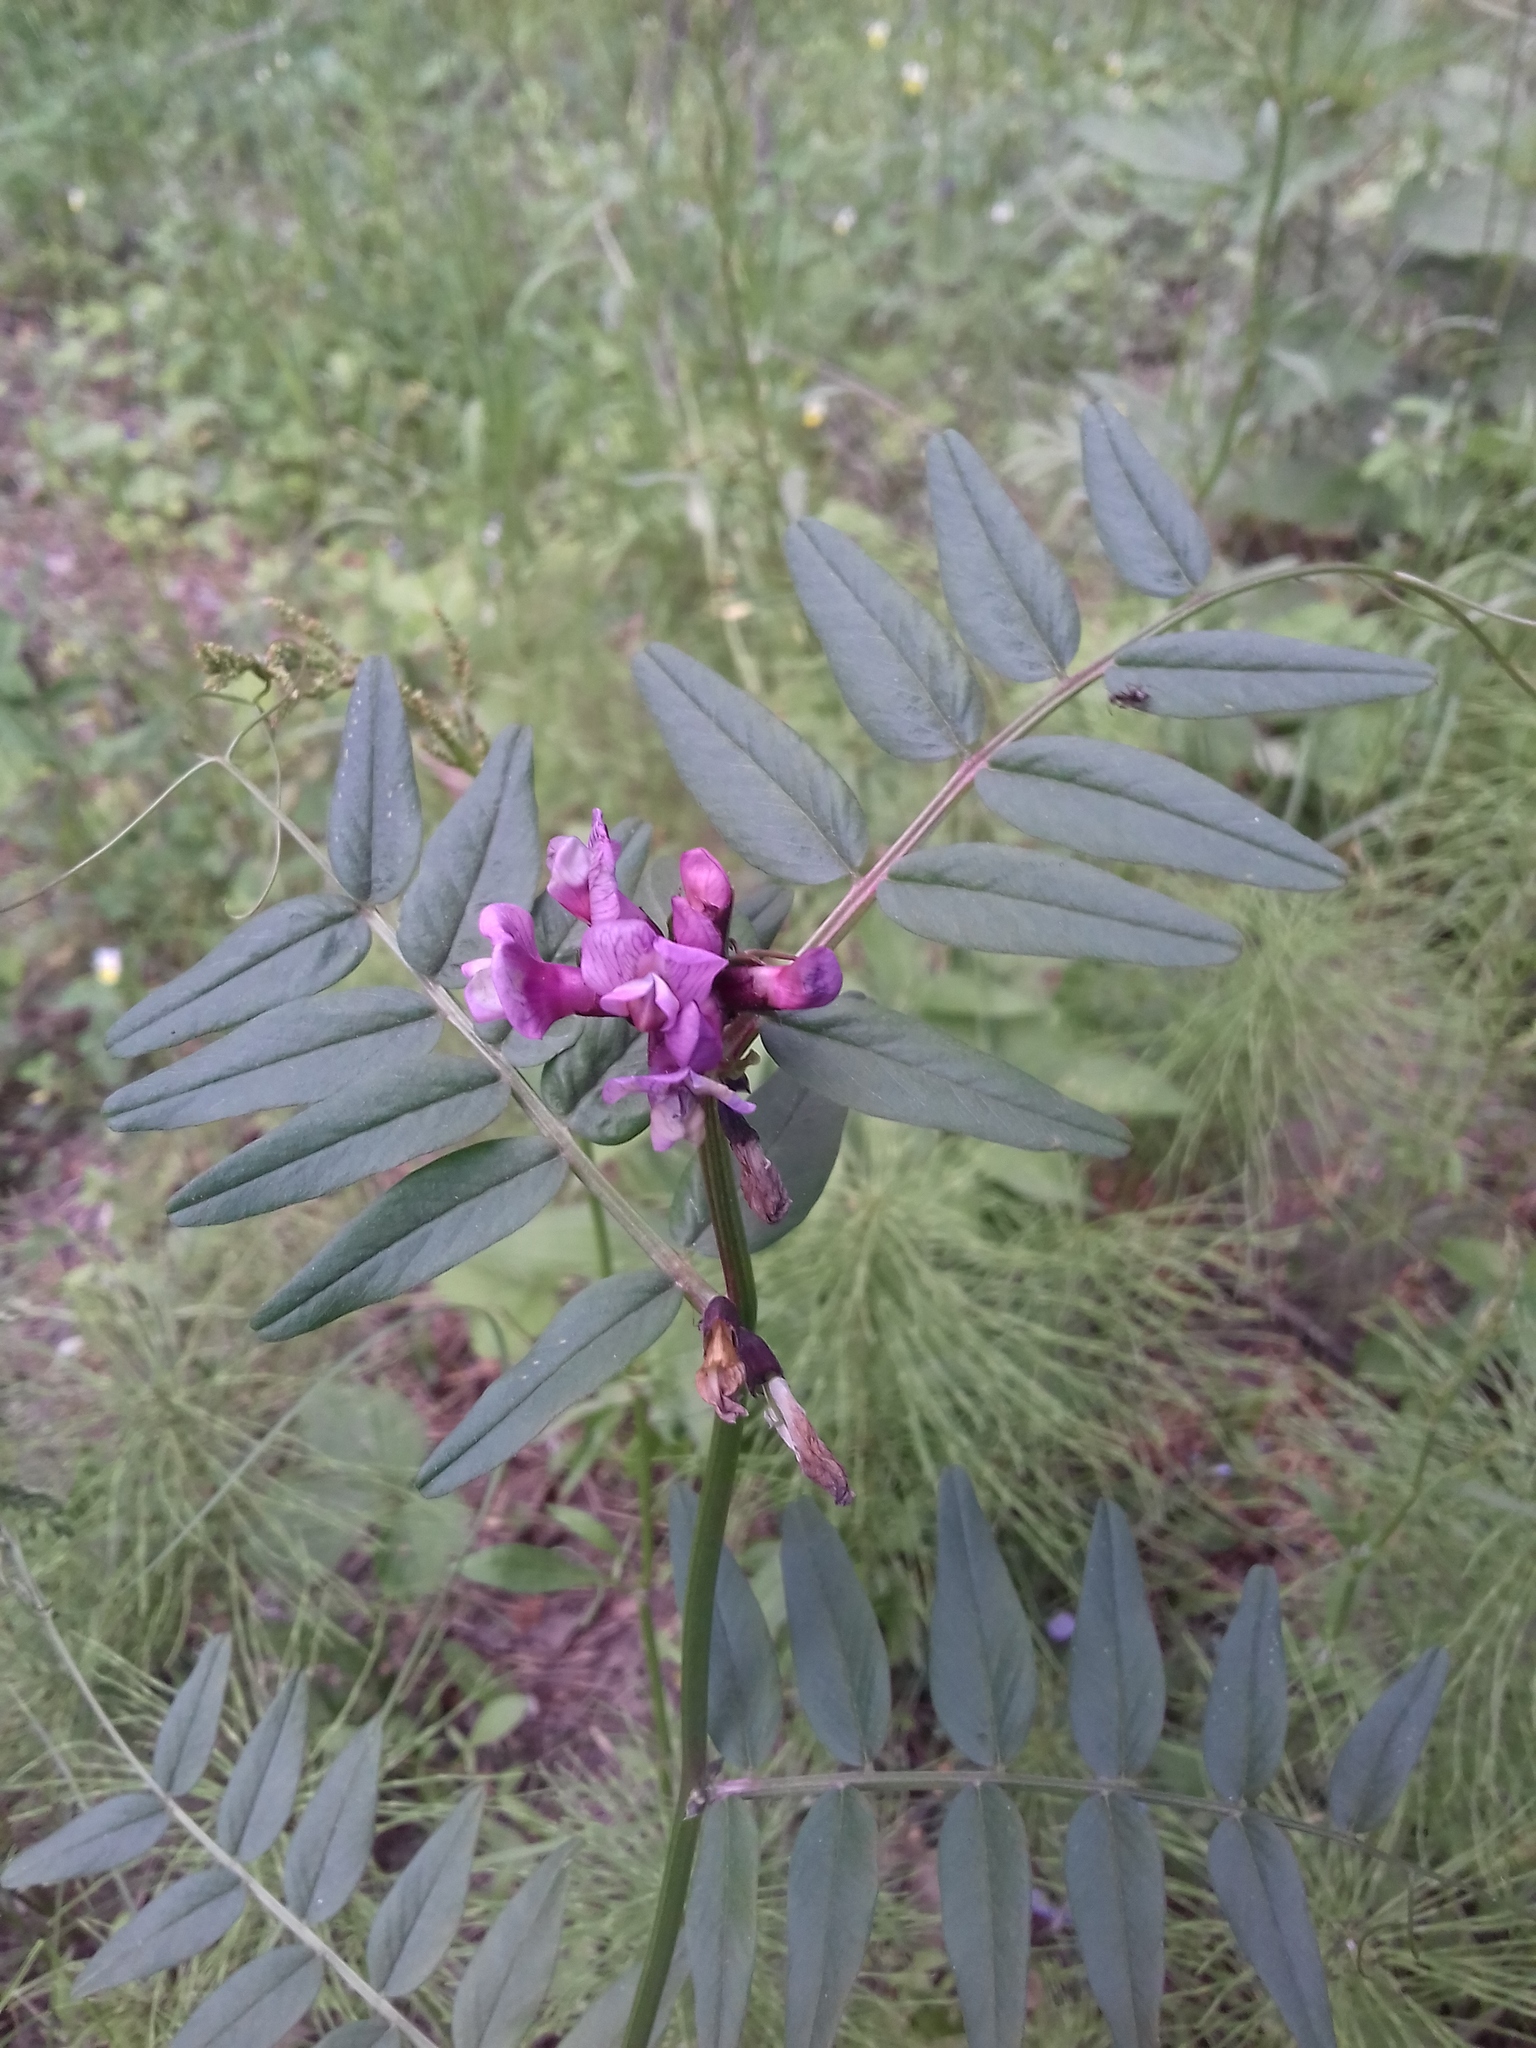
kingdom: Plantae
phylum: Tracheophyta
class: Magnoliopsida
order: Fabales
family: Fabaceae
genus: Vicia
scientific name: Vicia sepium
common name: Bush vetch
